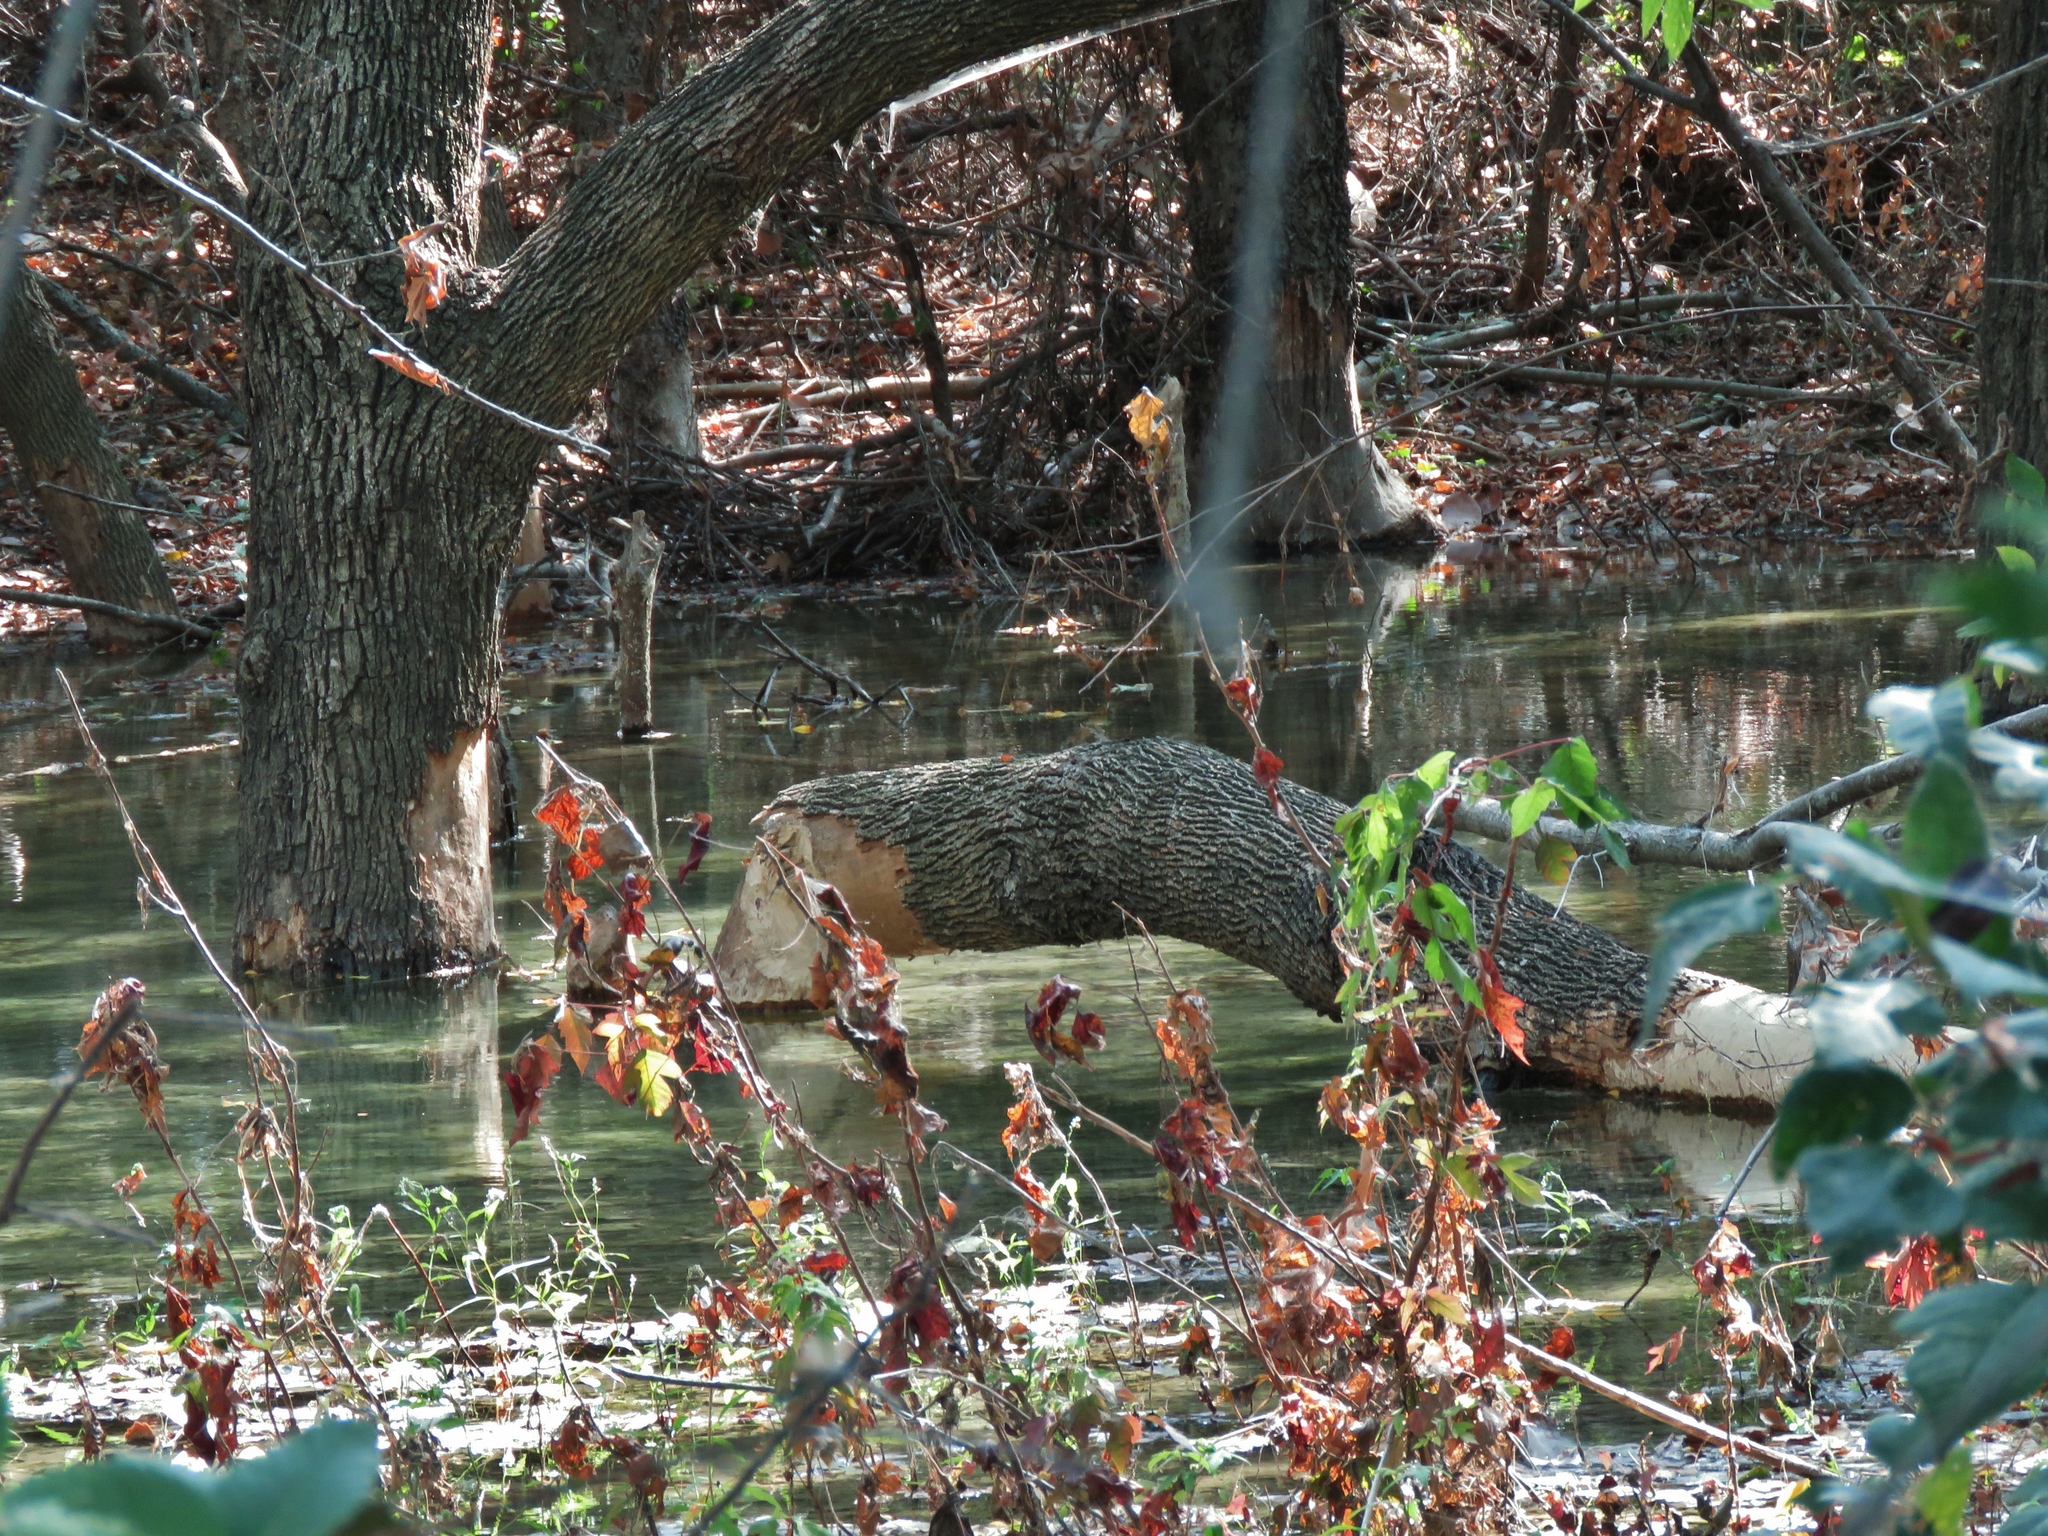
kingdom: Animalia
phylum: Chordata
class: Mammalia
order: Rodentia
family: Castoridae
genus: Castor
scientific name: Castor canadensis
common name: American beaver
